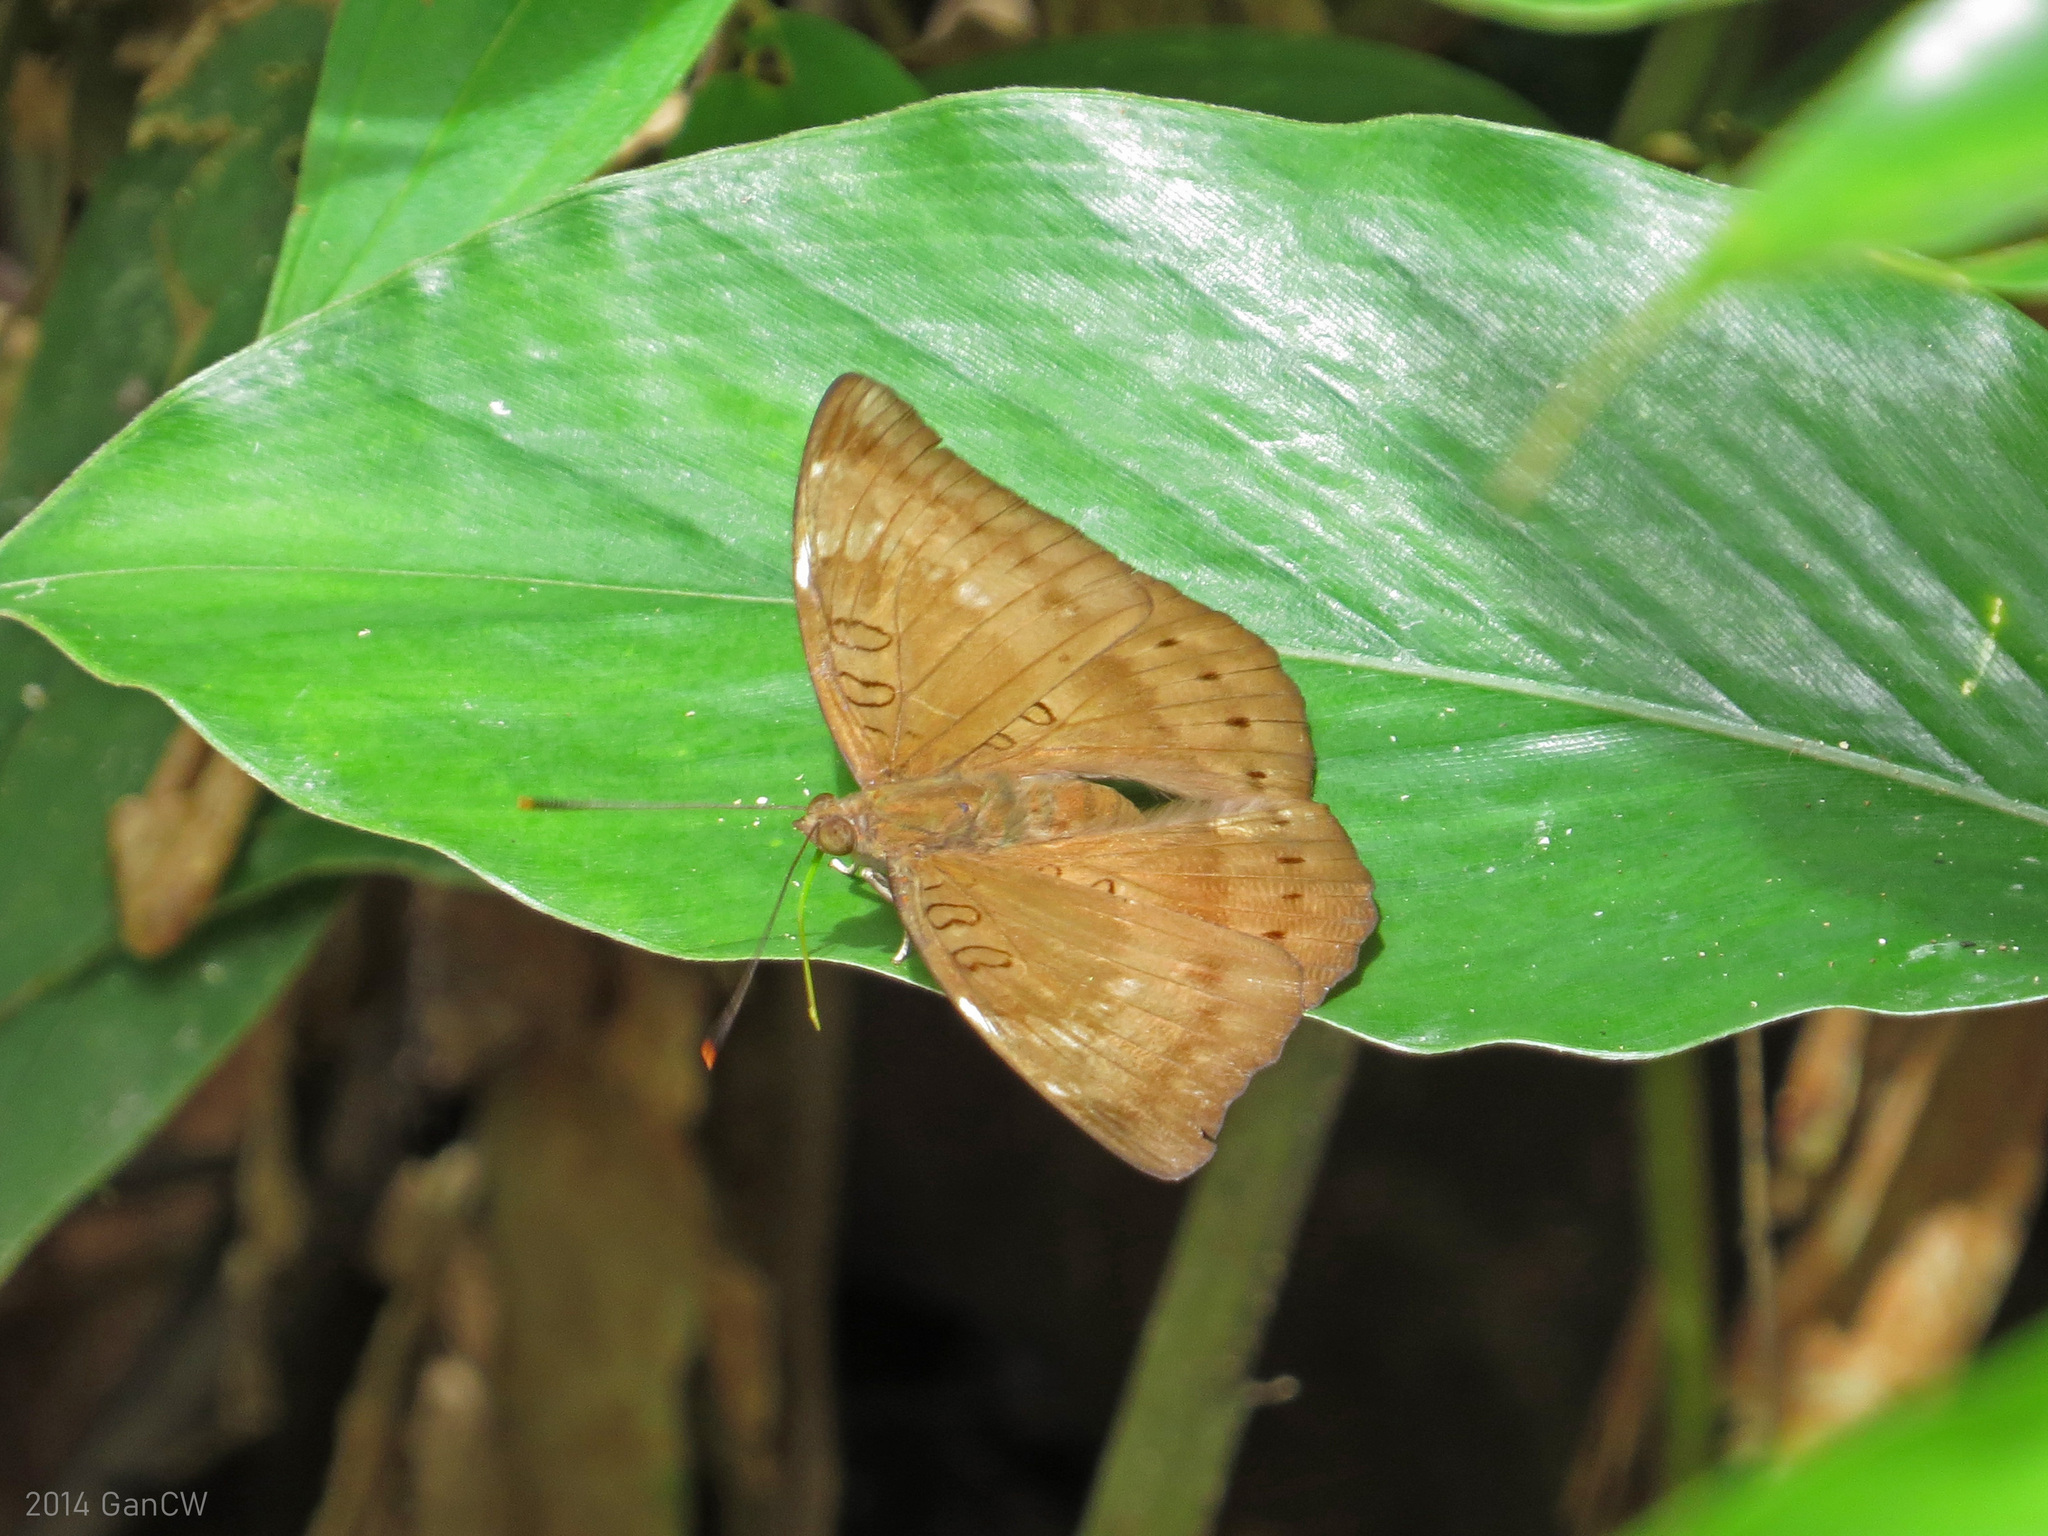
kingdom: Animalia
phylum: Arthropoda
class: Insecta
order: Lepidoptera
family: Nymphalidae
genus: Euthalia
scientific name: Euthalia aconthea
